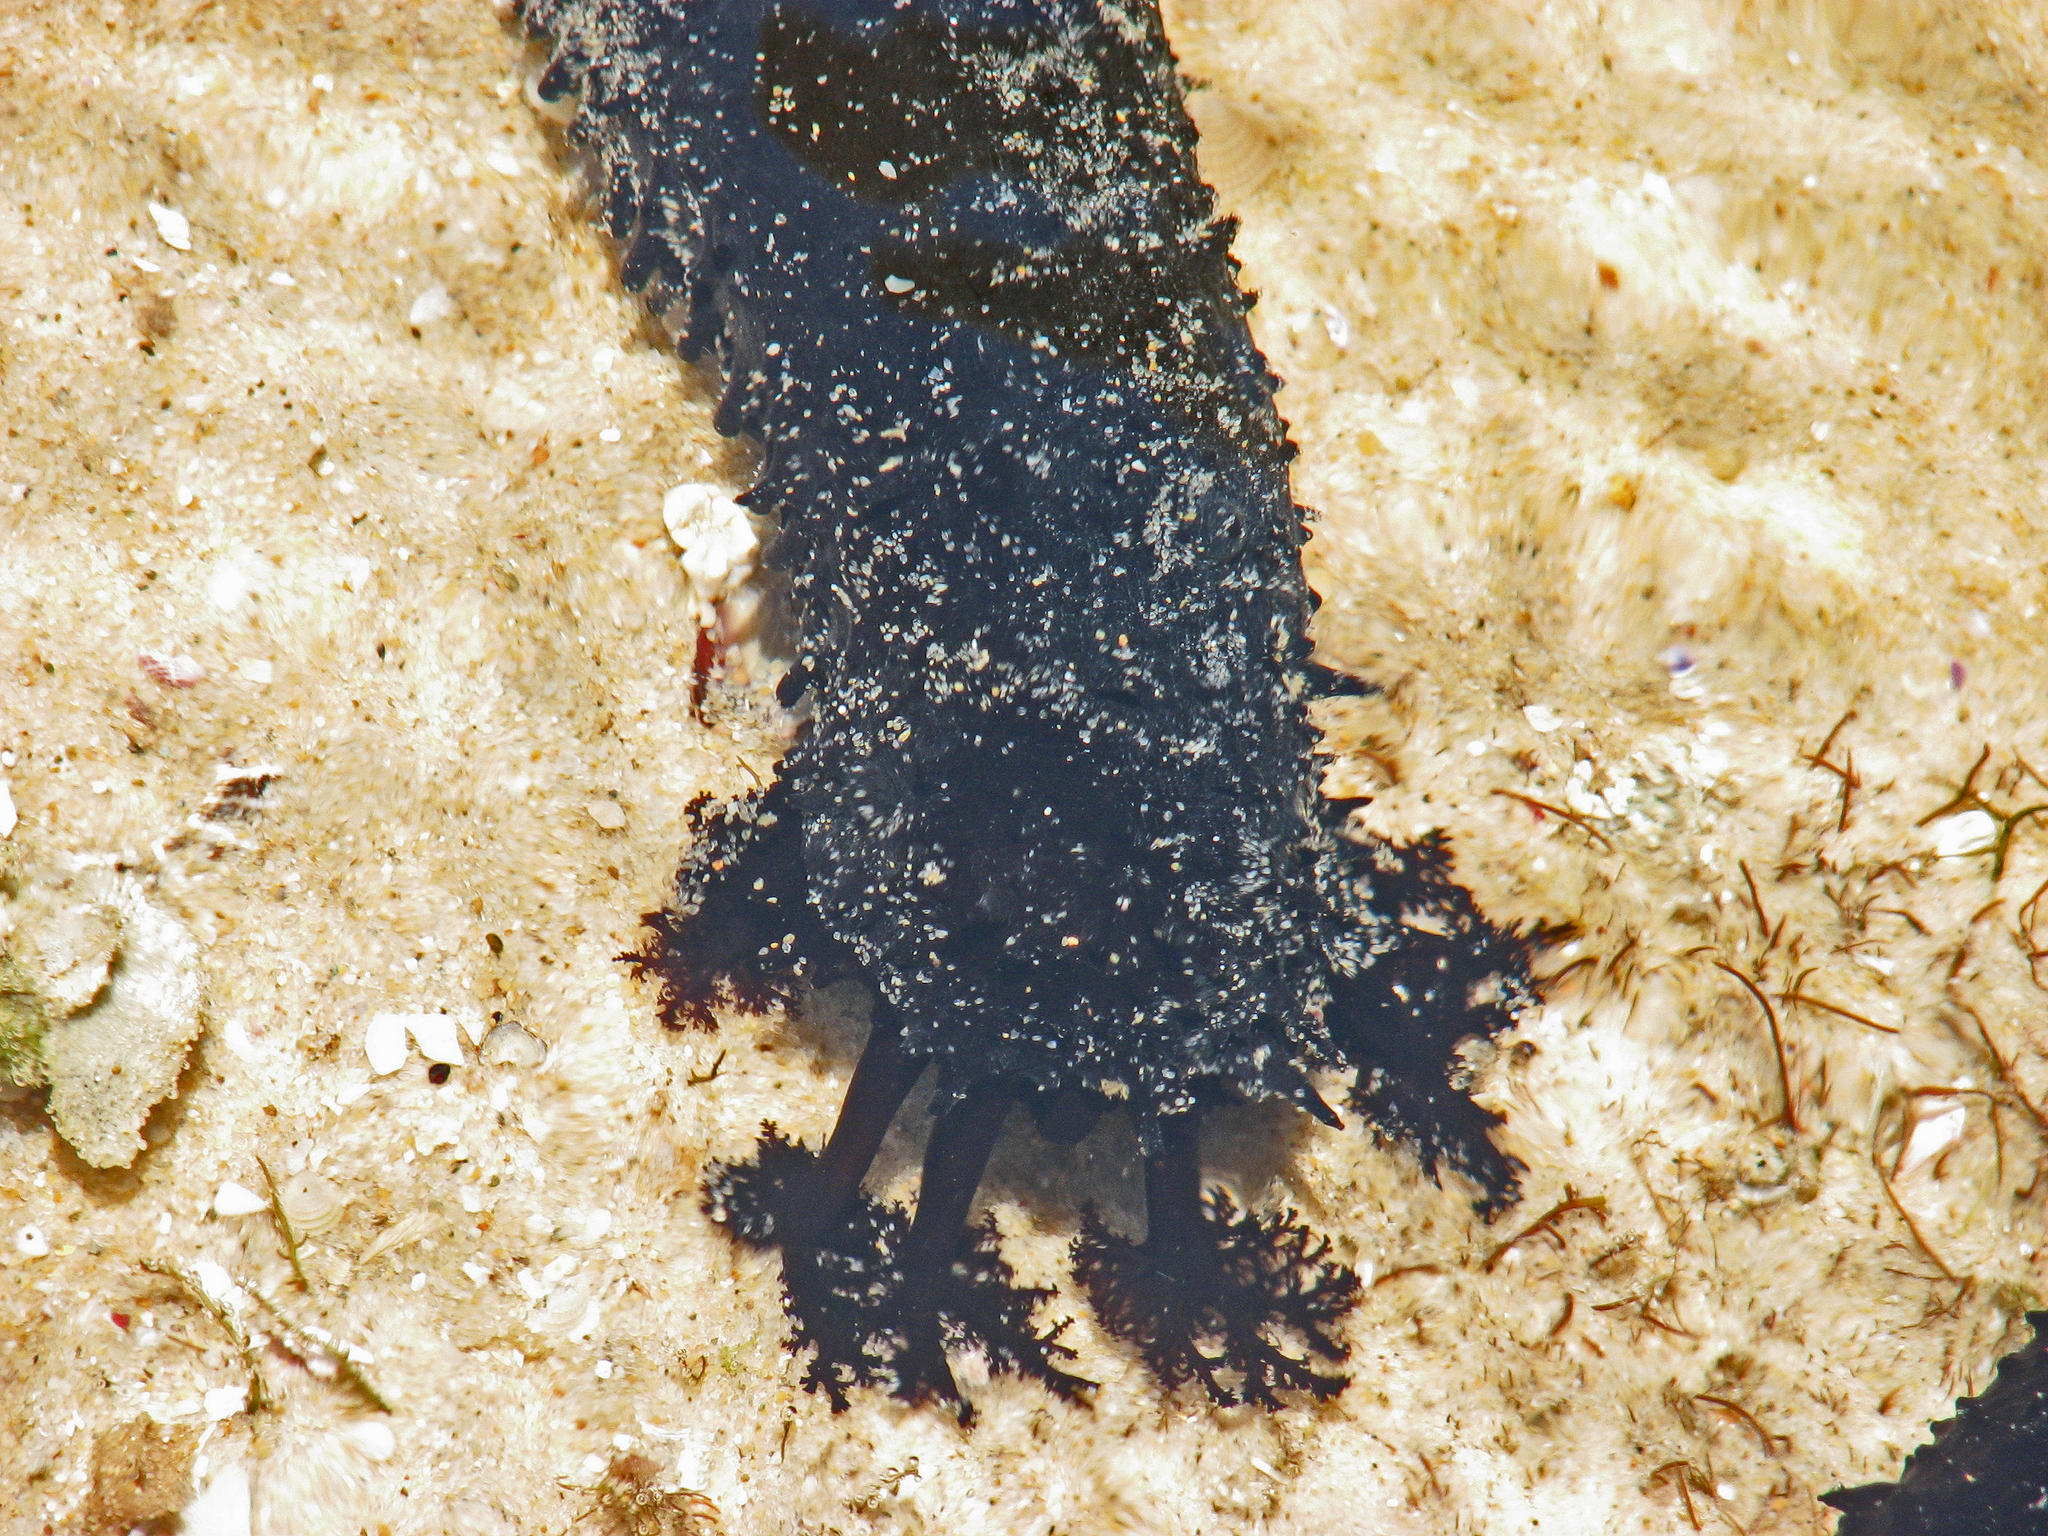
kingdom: Animalia
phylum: Echinodermata
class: Holothuroidea
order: Holothuriida
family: Holothuriidae
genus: Holothuria
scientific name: Holothuria leucospilota
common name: White thread fish
